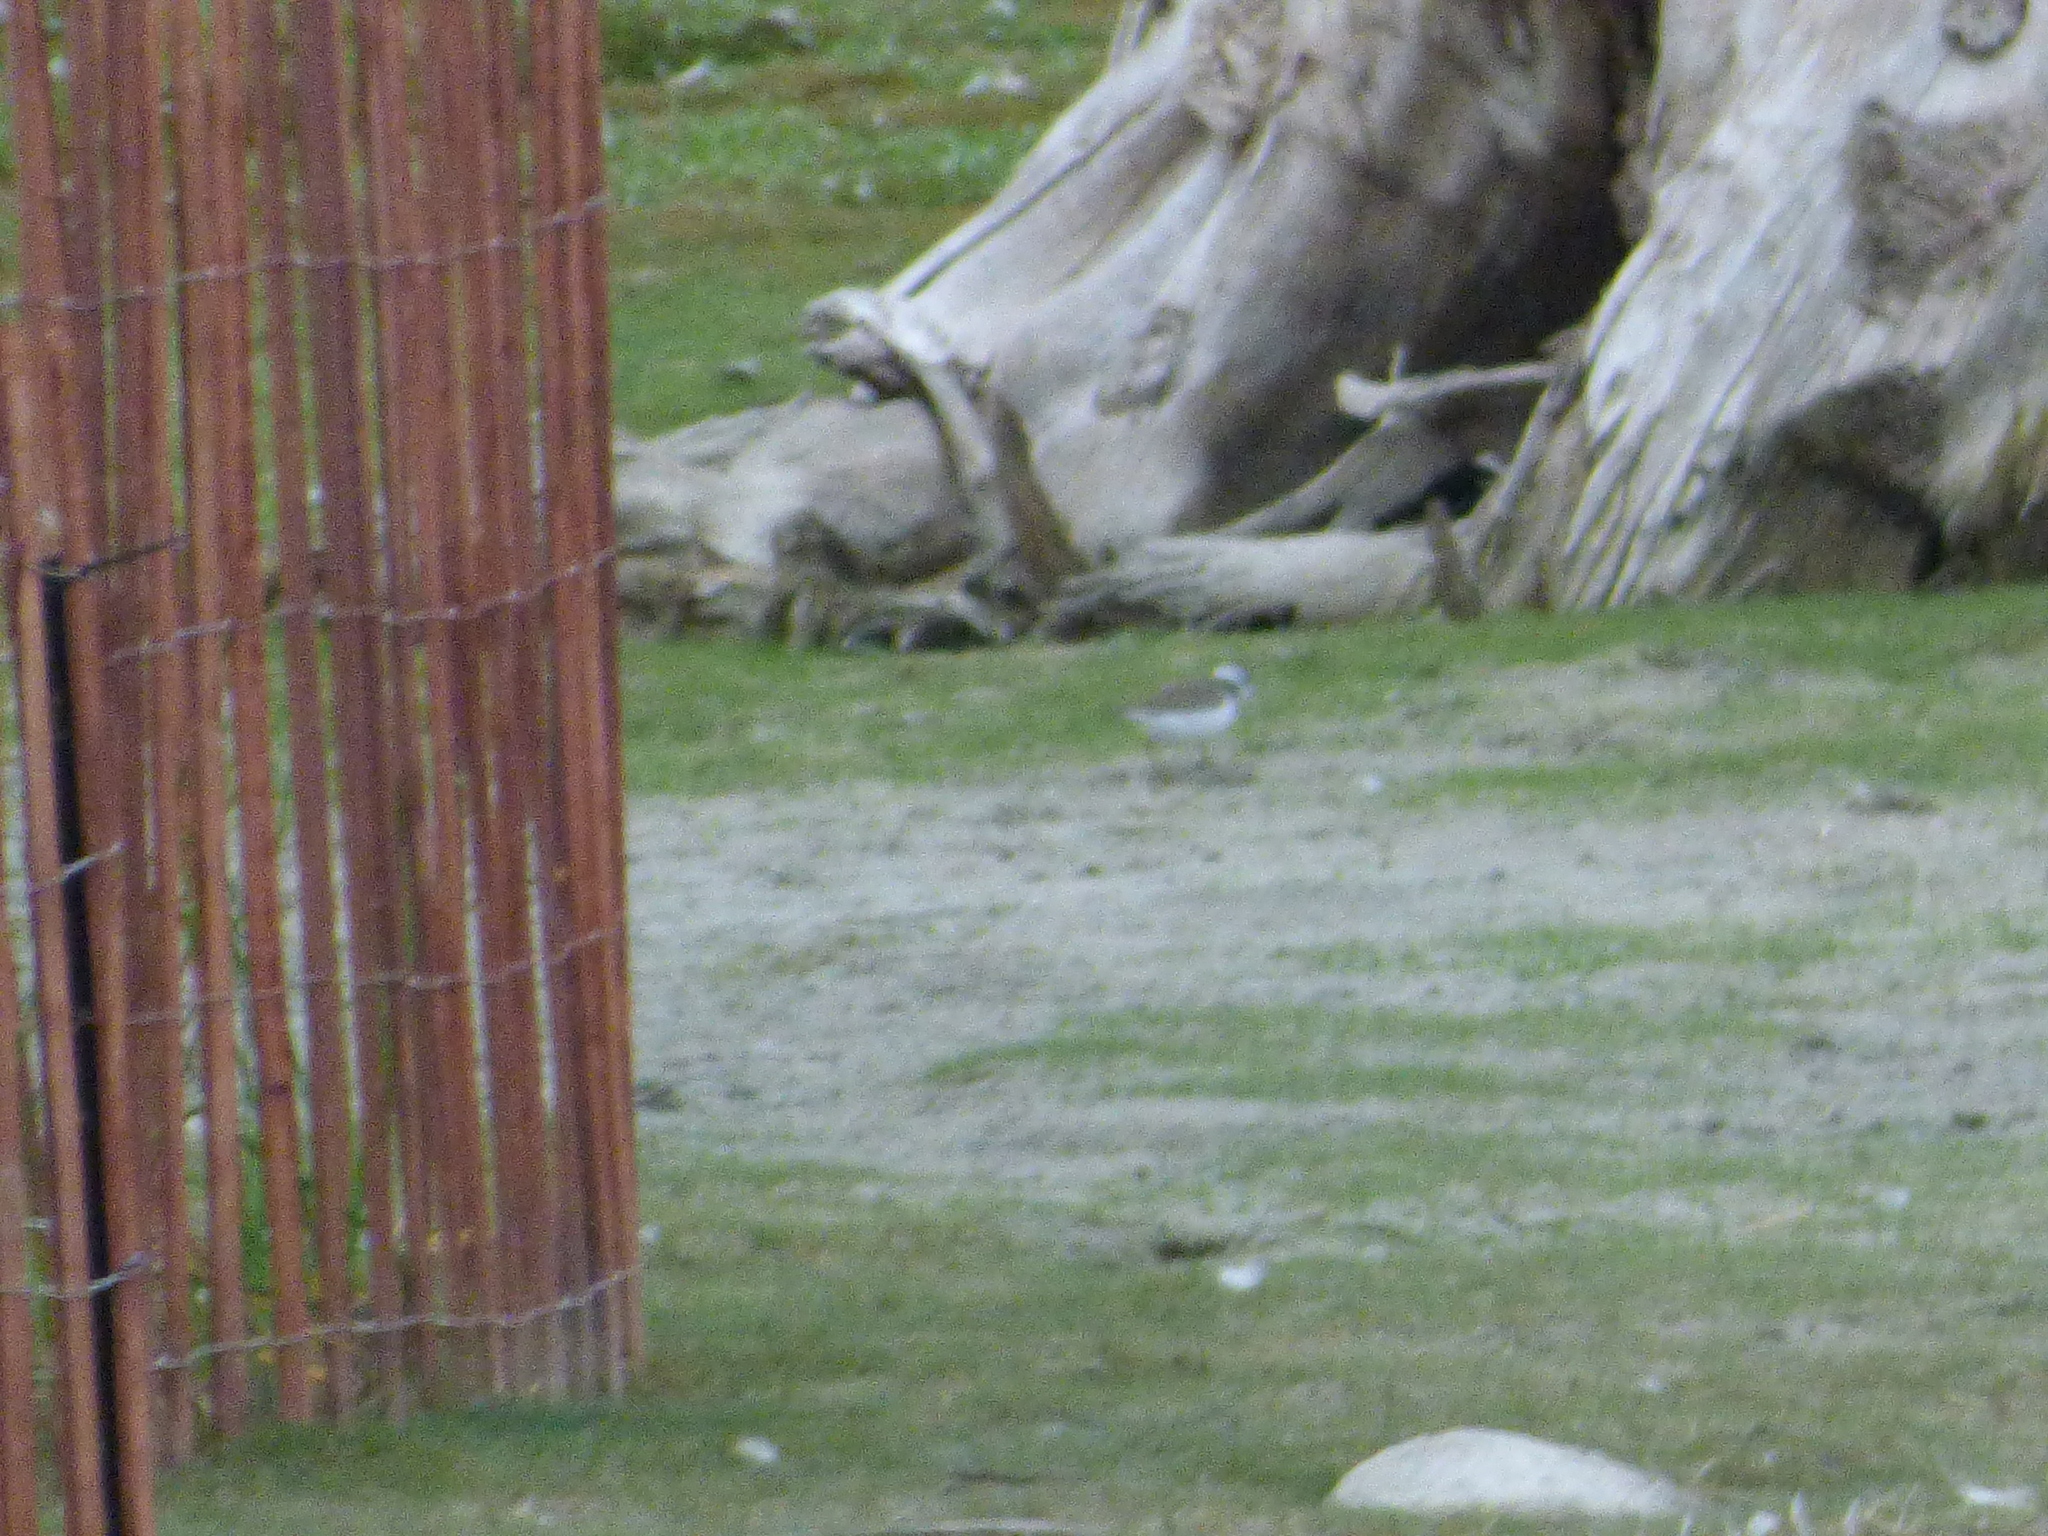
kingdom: Animalia
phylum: Chordata
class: Aves
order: Charadriiformes
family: Charadriidae
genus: Charadrius
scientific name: Charadrius semipalmatus
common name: Semipalmated plover
